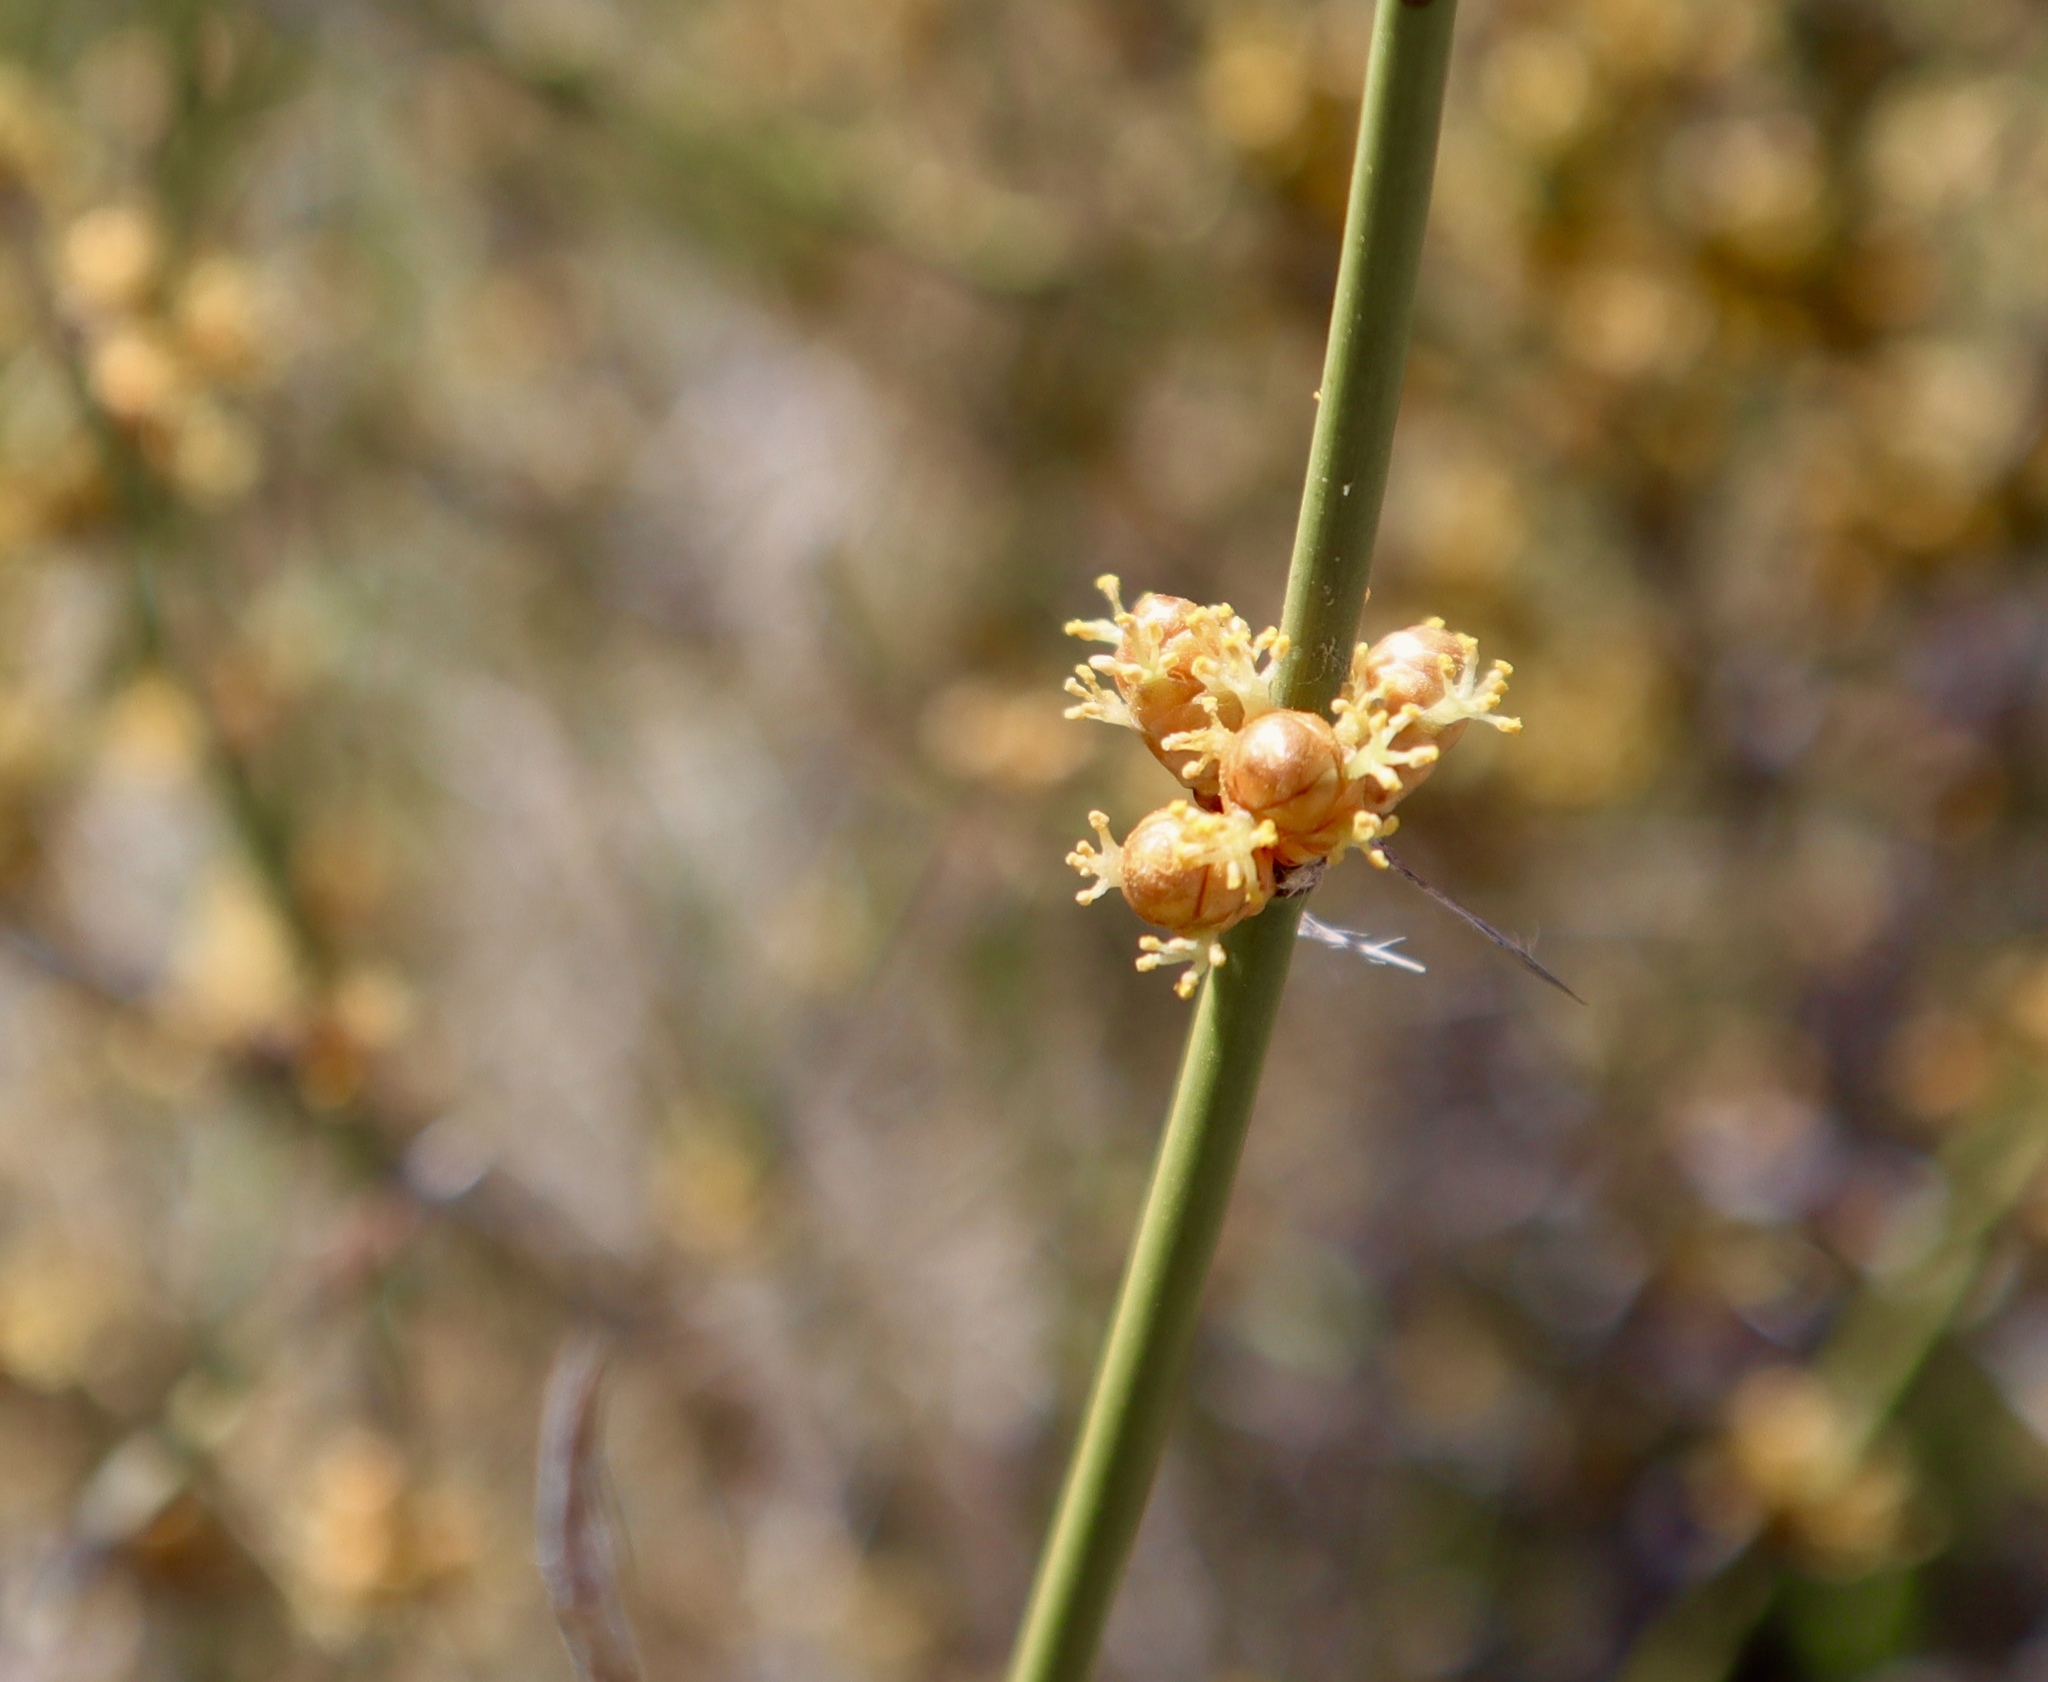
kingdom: Plantae
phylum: Tracheophyta
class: Gnetopsida
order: Ephedrales
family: Ephedraceae
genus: Ephedra
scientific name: Ephedra trifurca
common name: Mexican-tea
